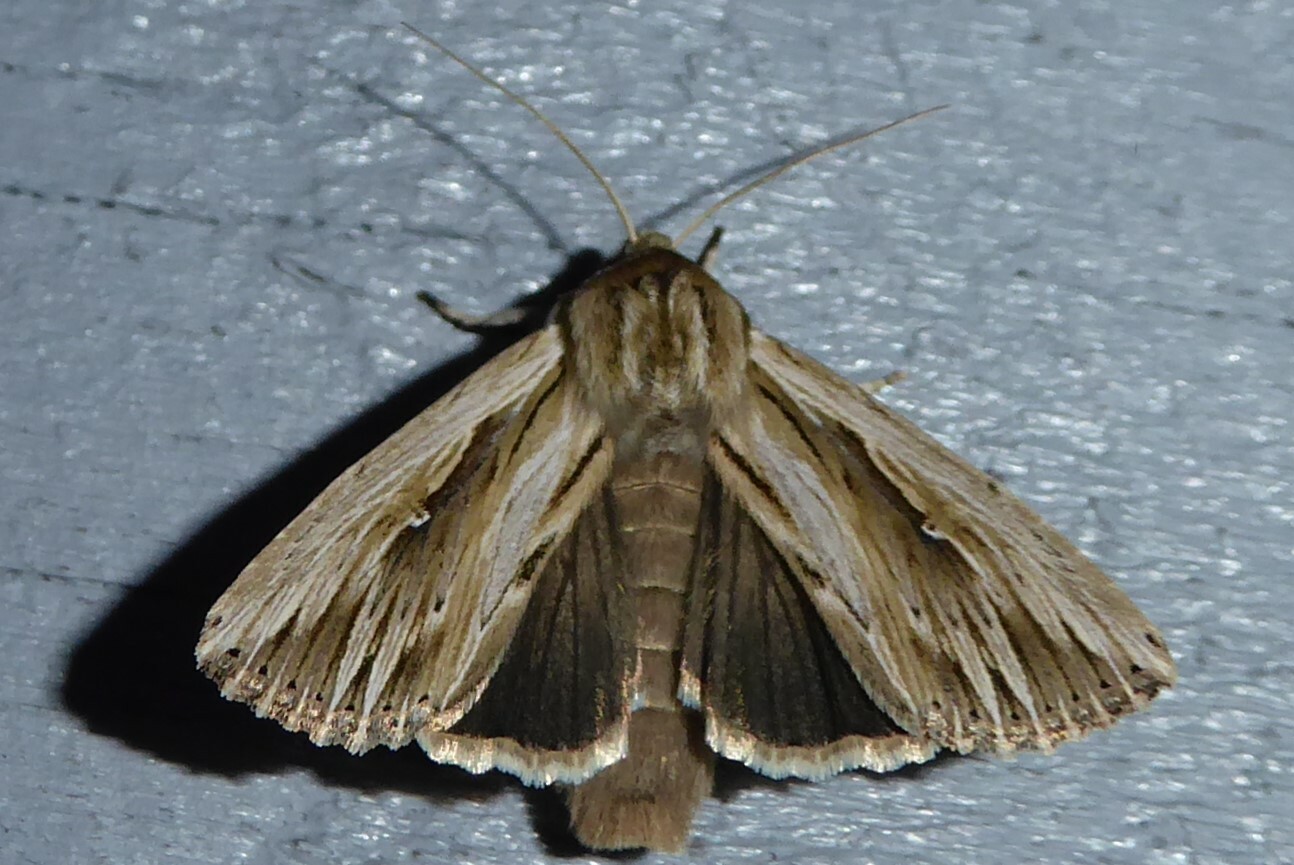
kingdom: Animalia
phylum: Arthropoda
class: Insecta
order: Lepidoptera
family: Noctuidae
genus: Persectania
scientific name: Persectania aversa
